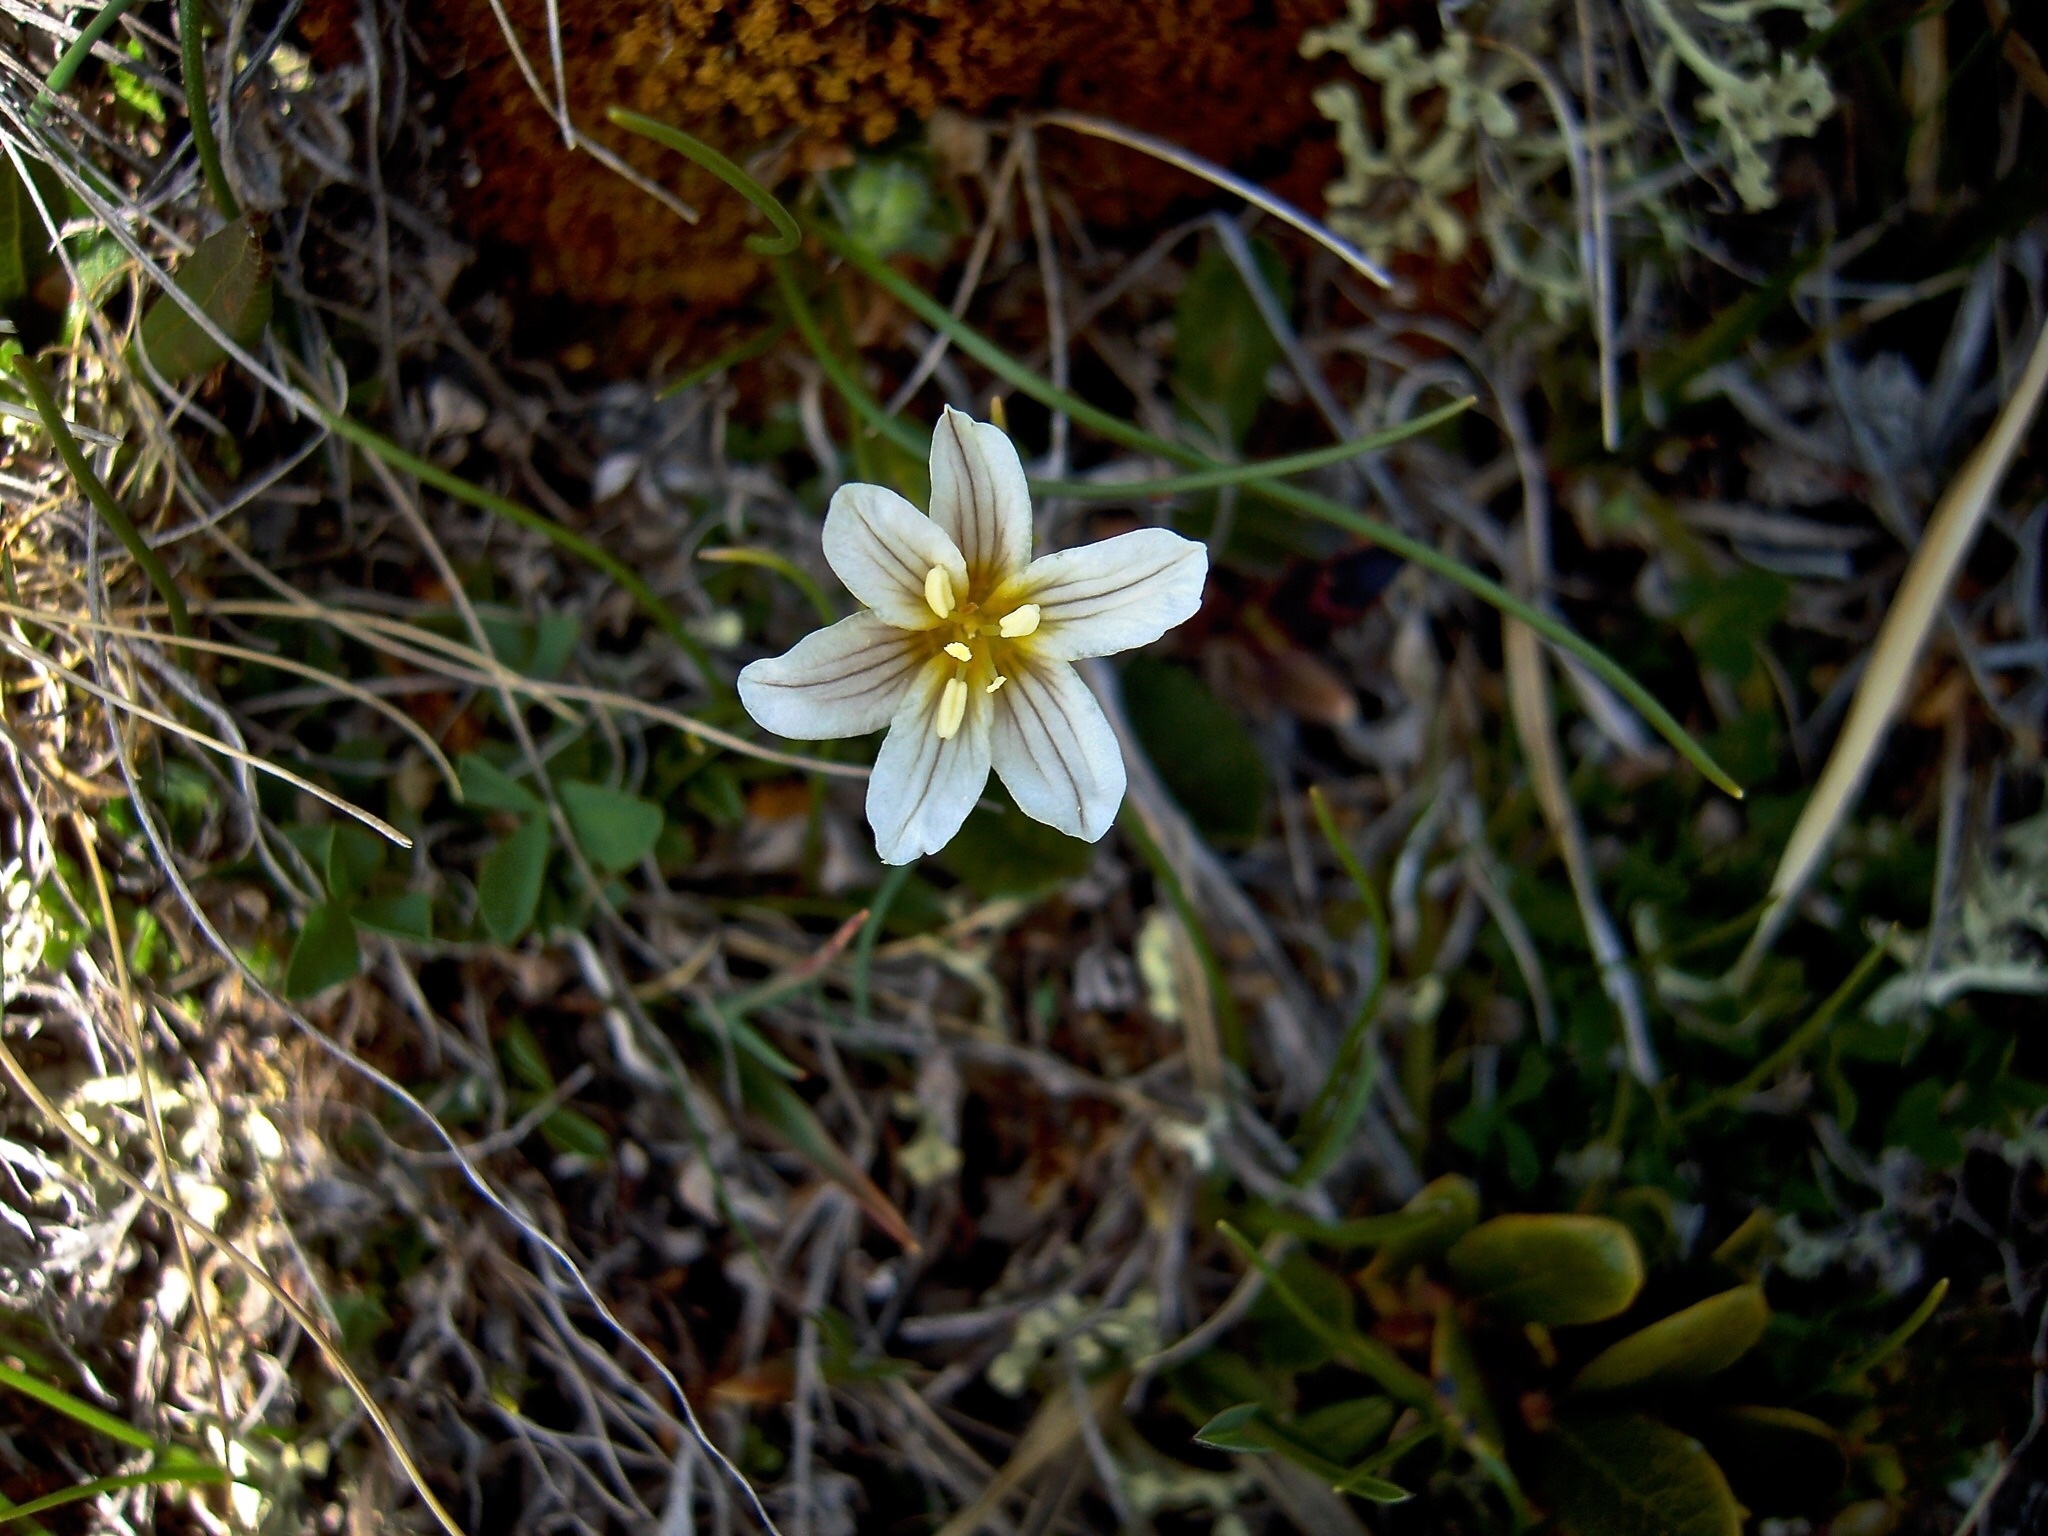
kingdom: Plantae
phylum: Tracheophyta
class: Liliopsida
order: Liliales
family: Liliaceae
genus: Gagea
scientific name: Gagea serotina
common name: Snowdon lily
